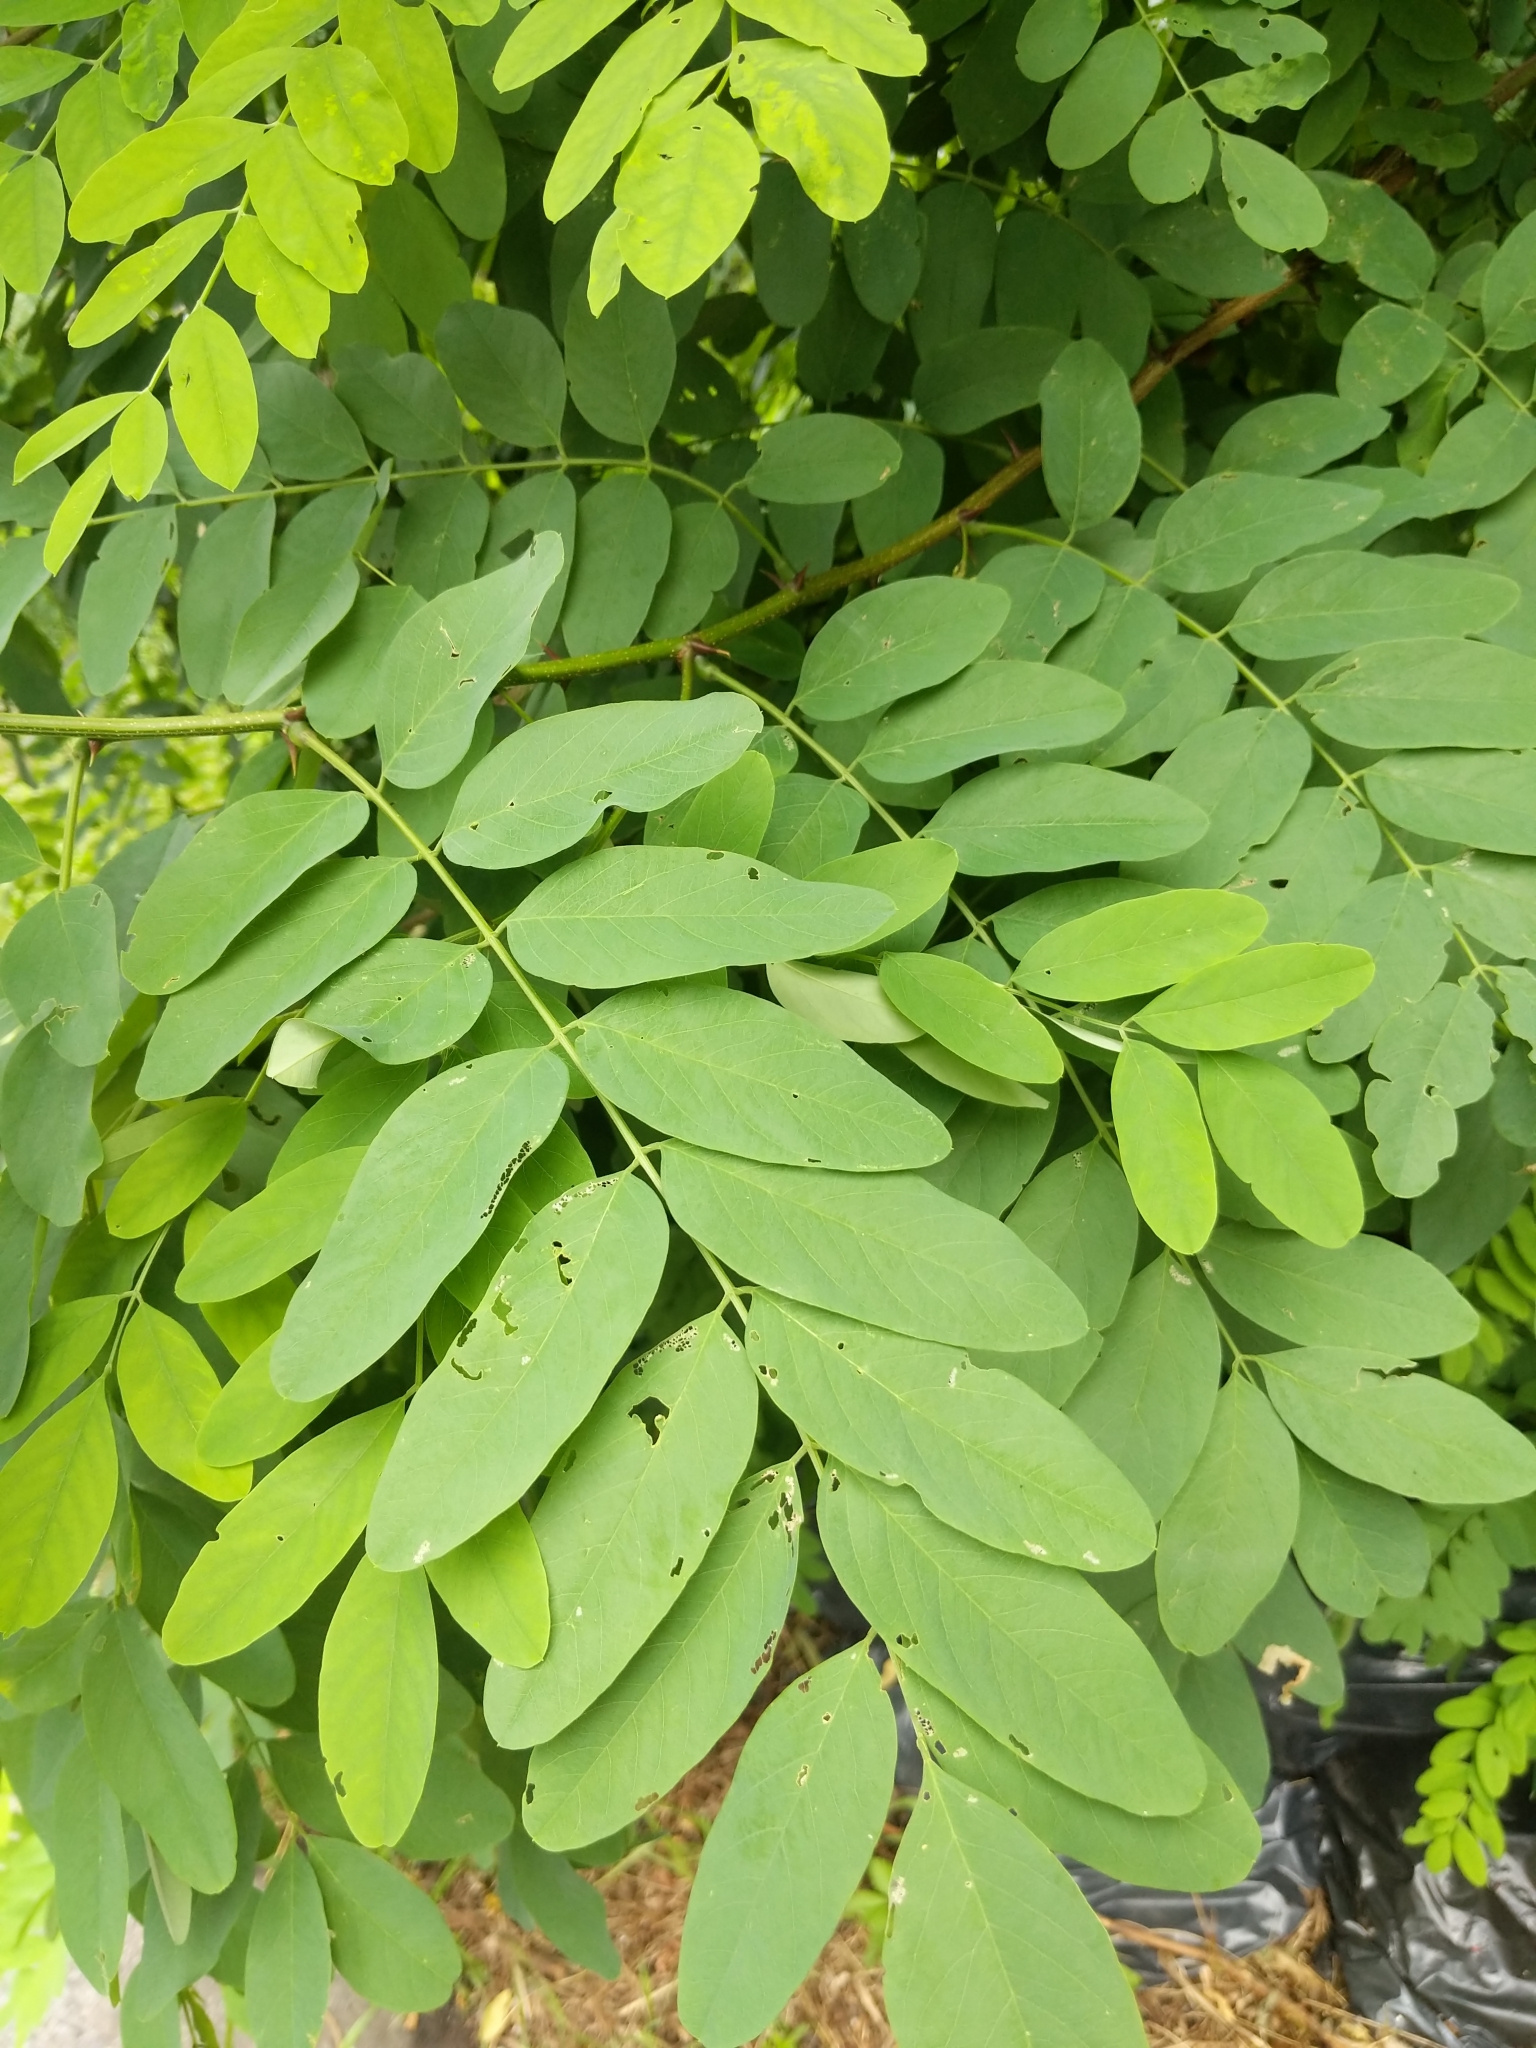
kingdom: Plantae
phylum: Tracheophyta
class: Magnoliopsida
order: Fabales
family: Fabaceae
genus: Robinia
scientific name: Robinia pseudoacacia
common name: Black locust
